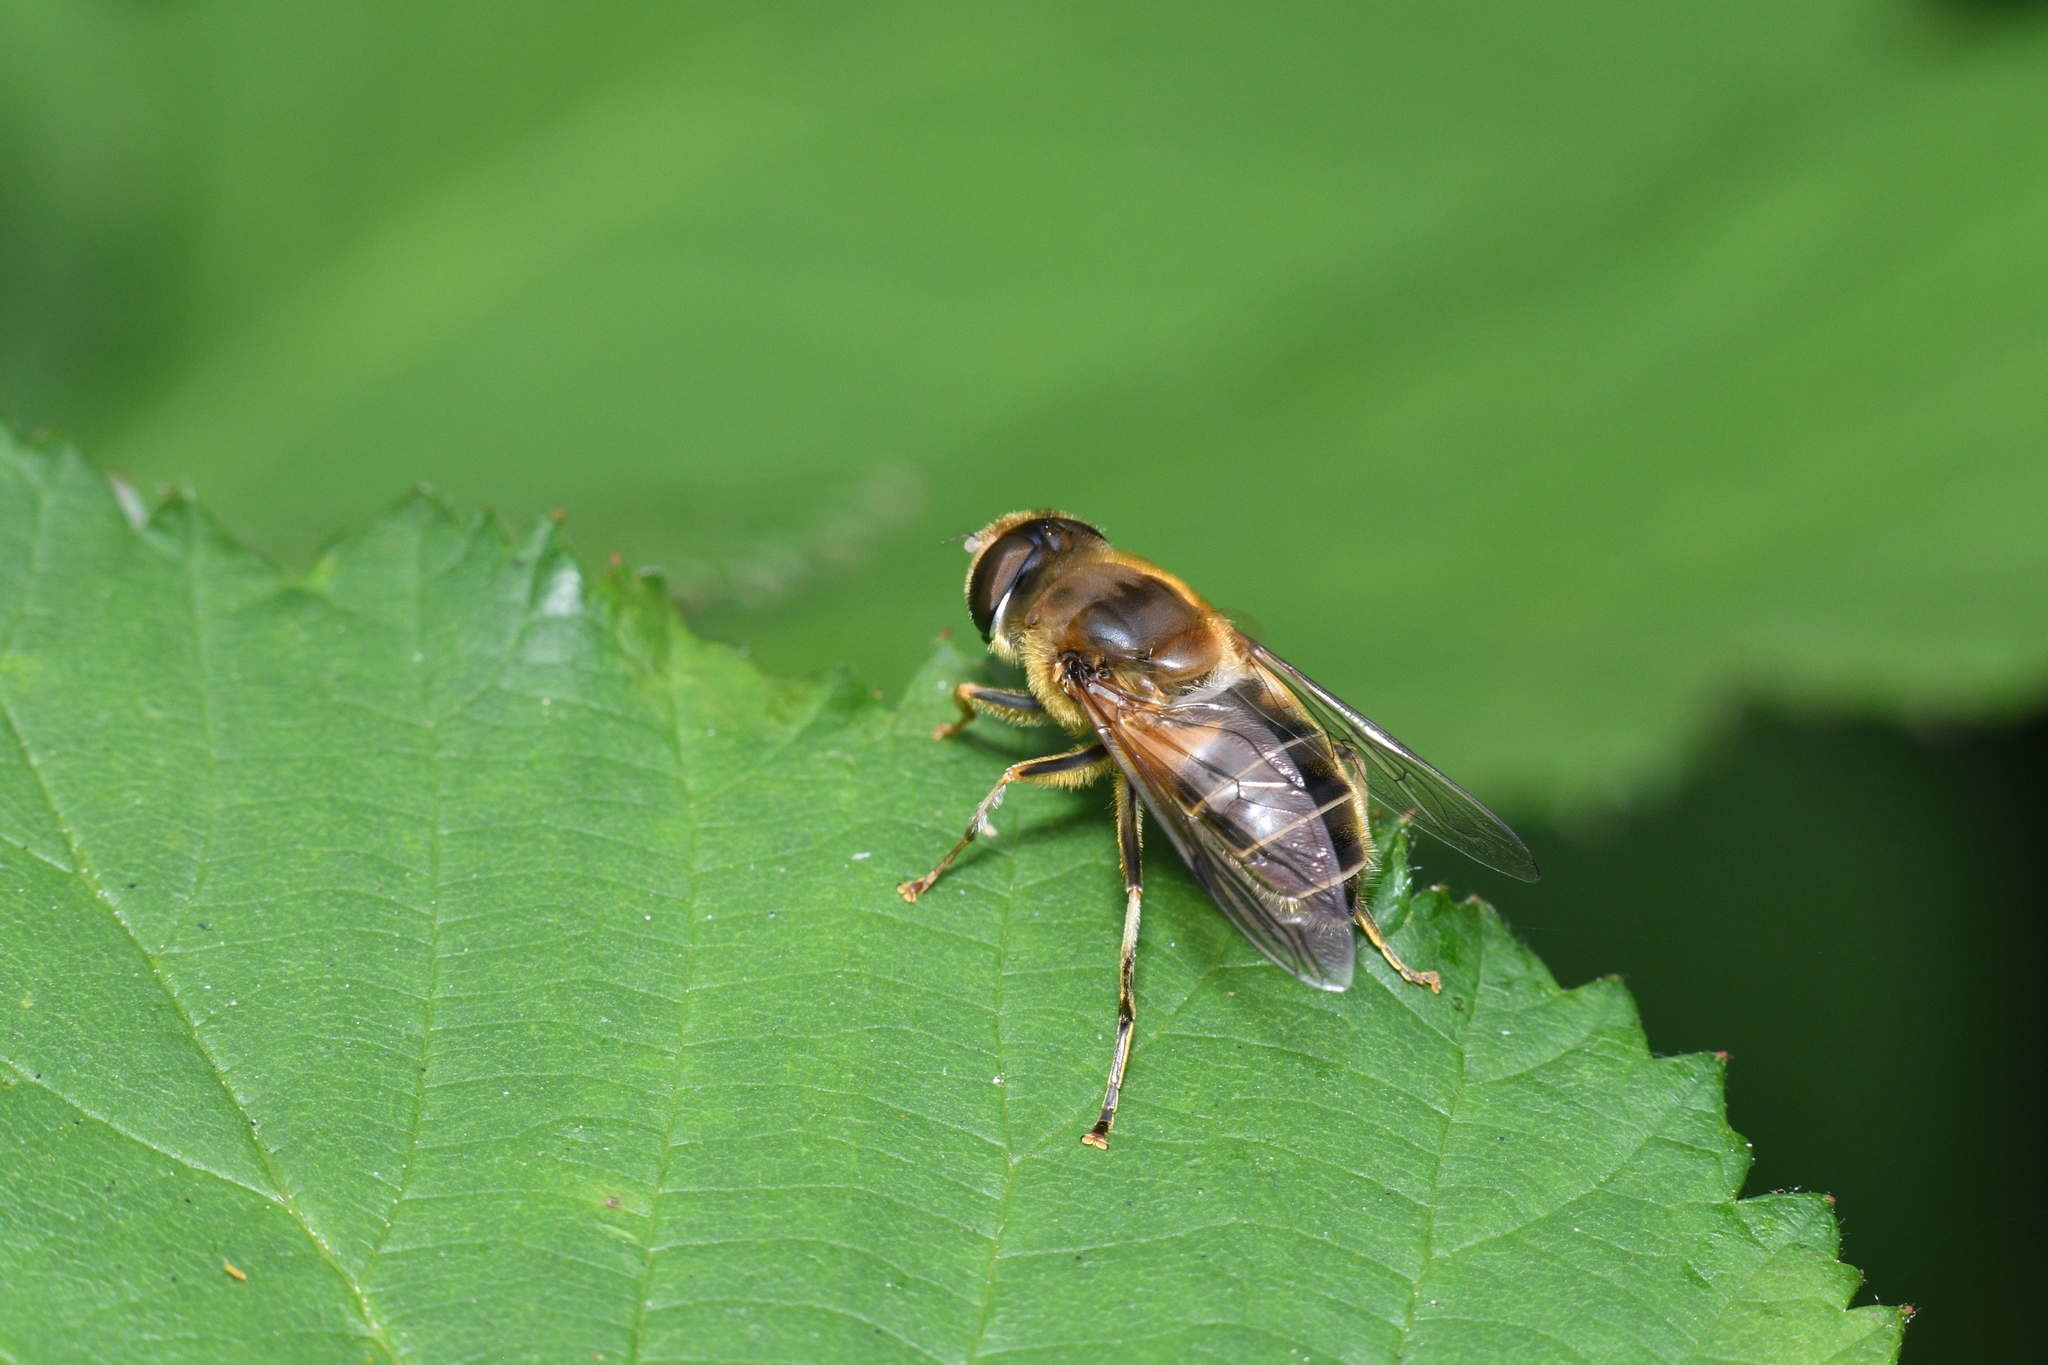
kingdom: Animalia
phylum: Arthropoda
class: Insecta
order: Diptera
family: Syrphidae
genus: Eristalis
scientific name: Eristalis pertinax
